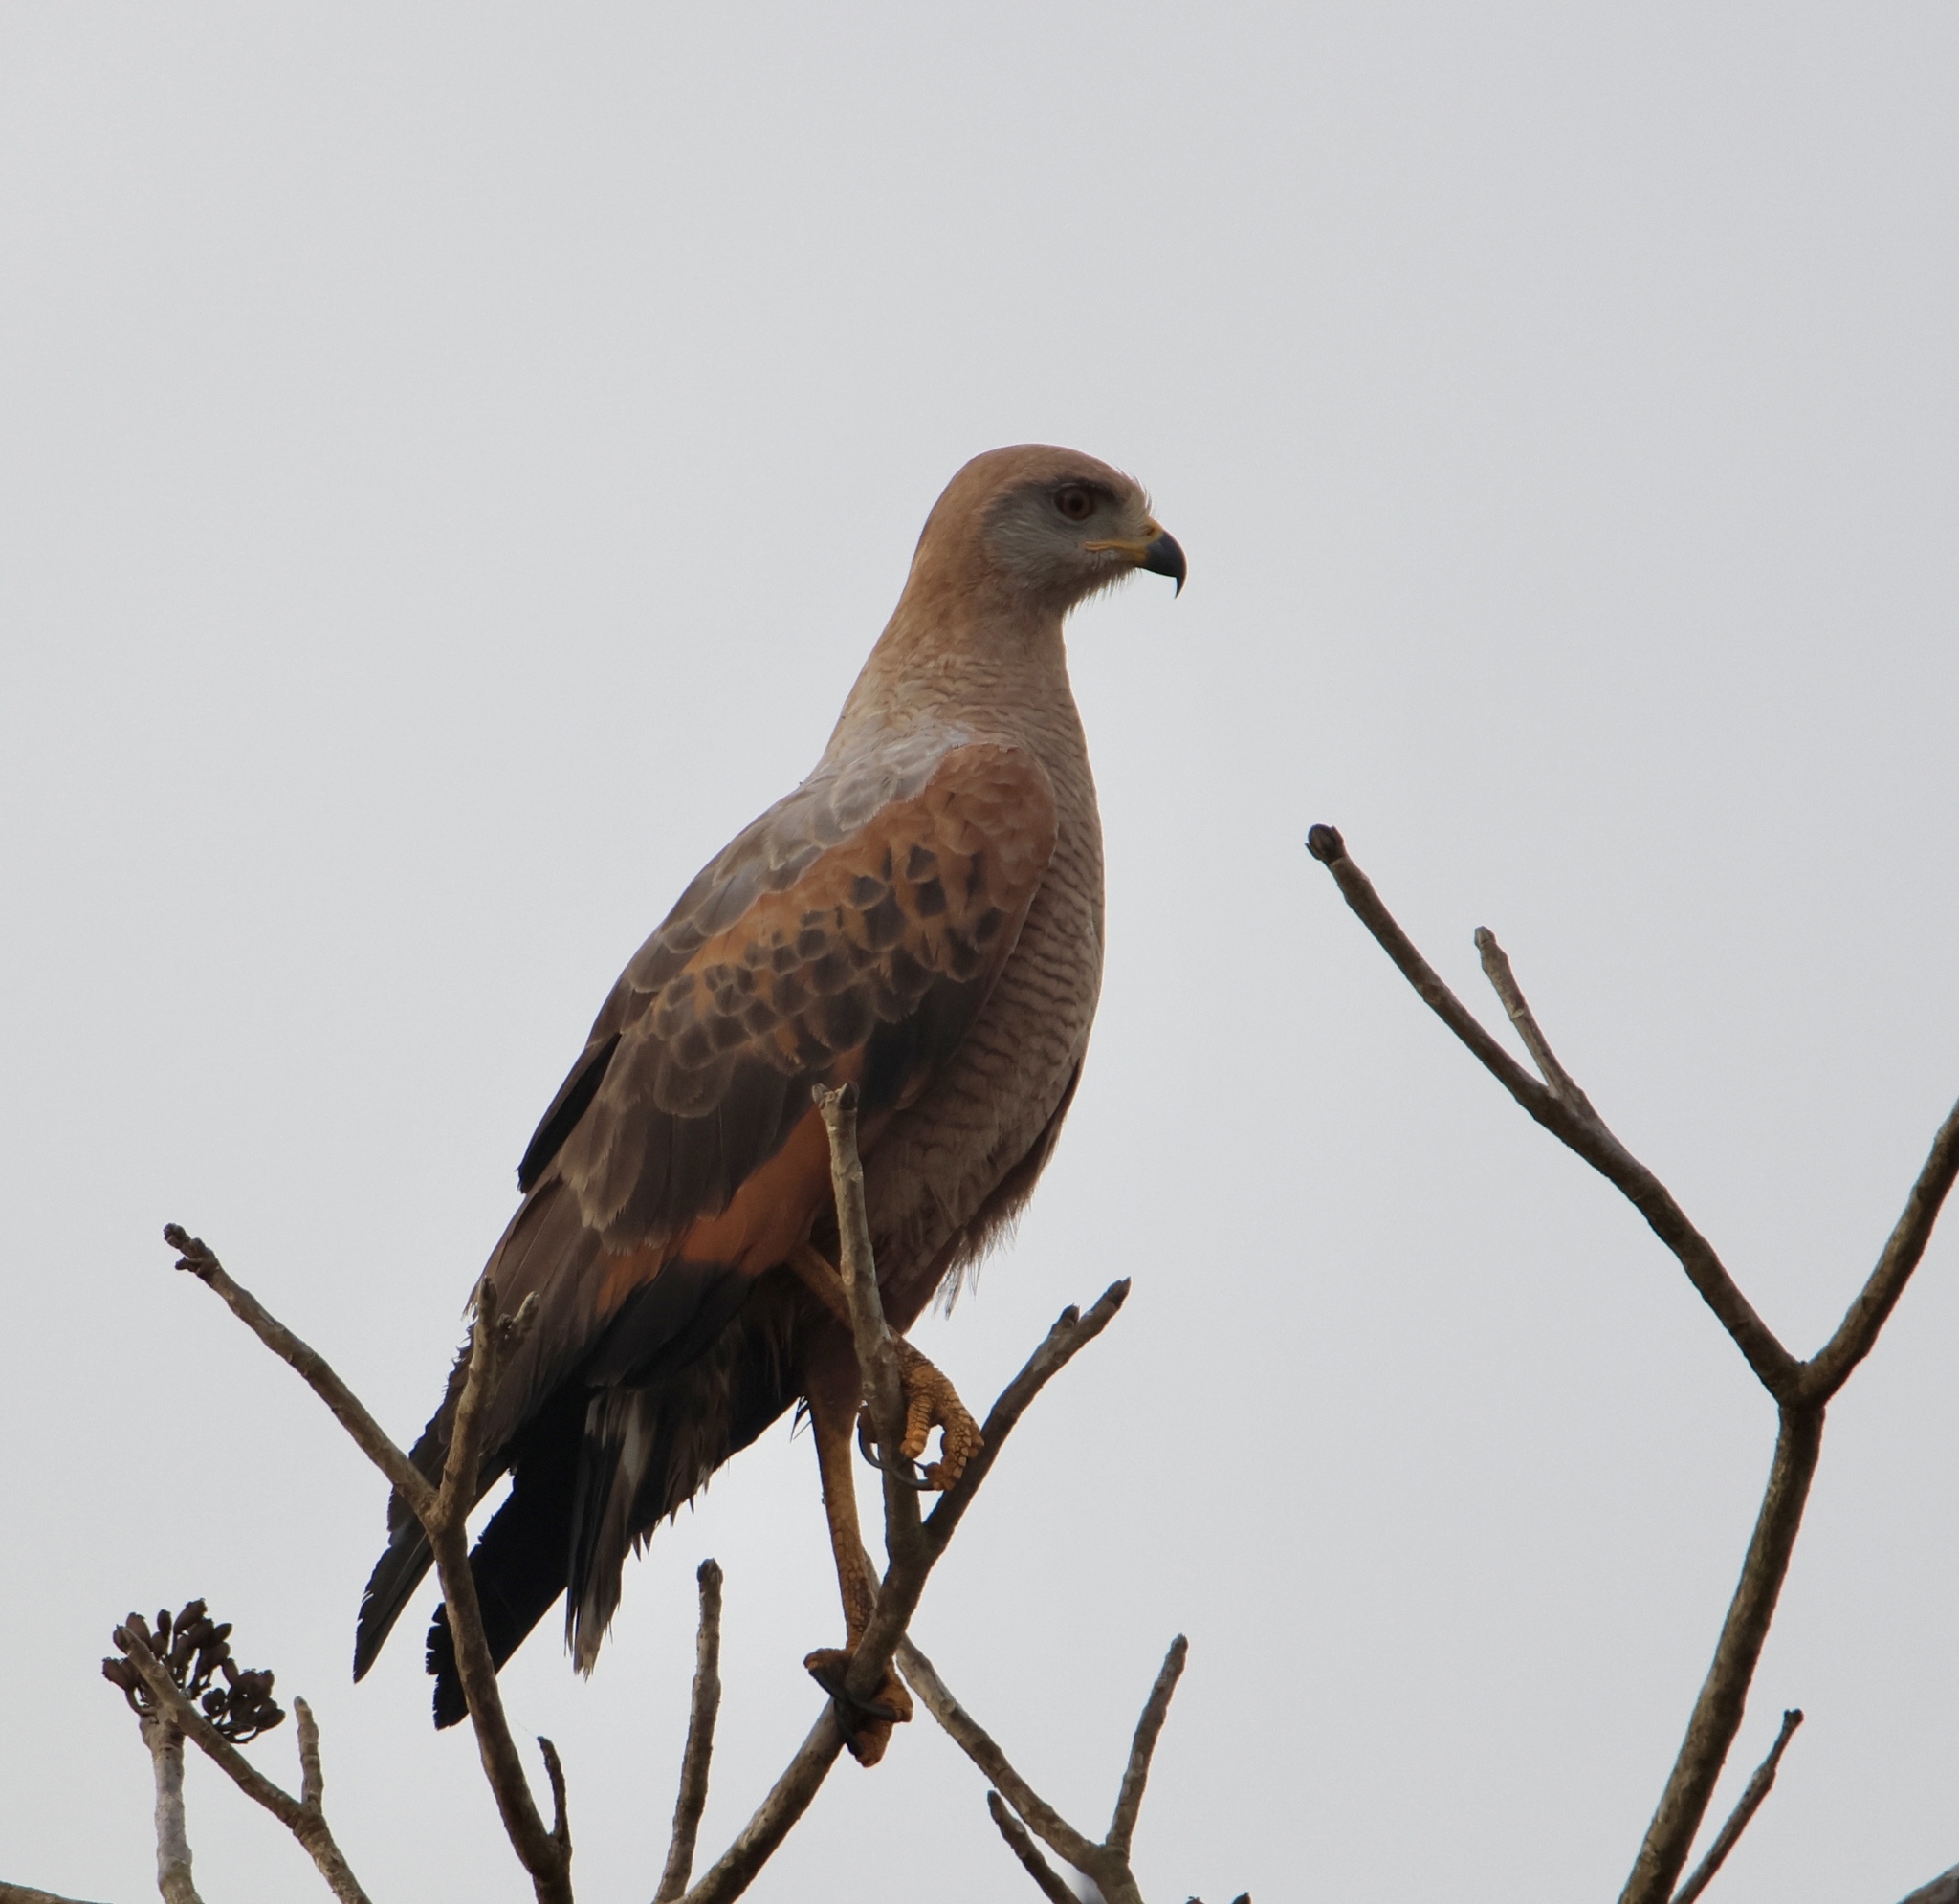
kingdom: Animalia
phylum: Chordata
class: Aves
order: Accipitriformes
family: Accipitridae
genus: Buteogallus
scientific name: Buteogallus meridionalis
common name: Savanna hawk
